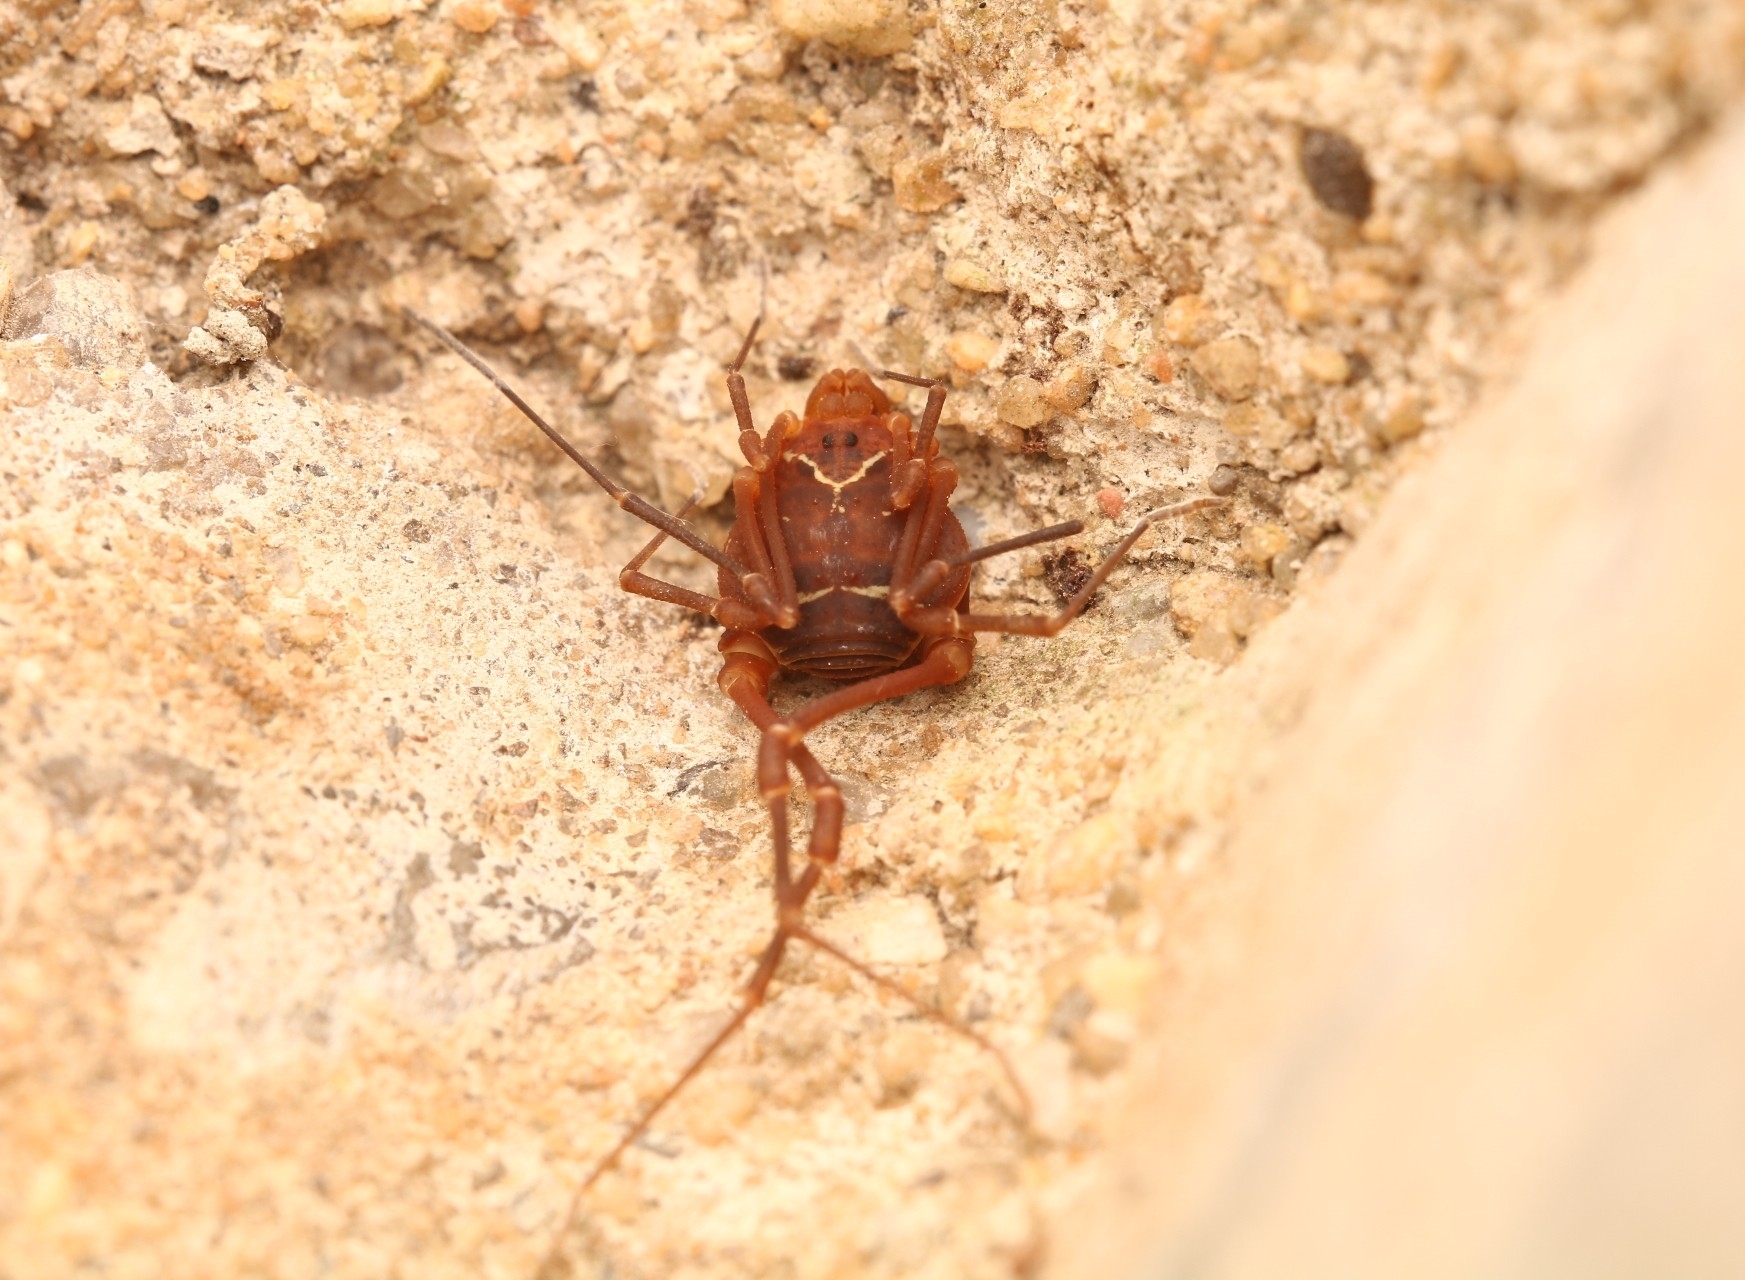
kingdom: Animalia
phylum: Arthropoda
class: Arachnida
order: Opiliones
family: Cosmetidae
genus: Libitioides
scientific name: Libitioides sayi
